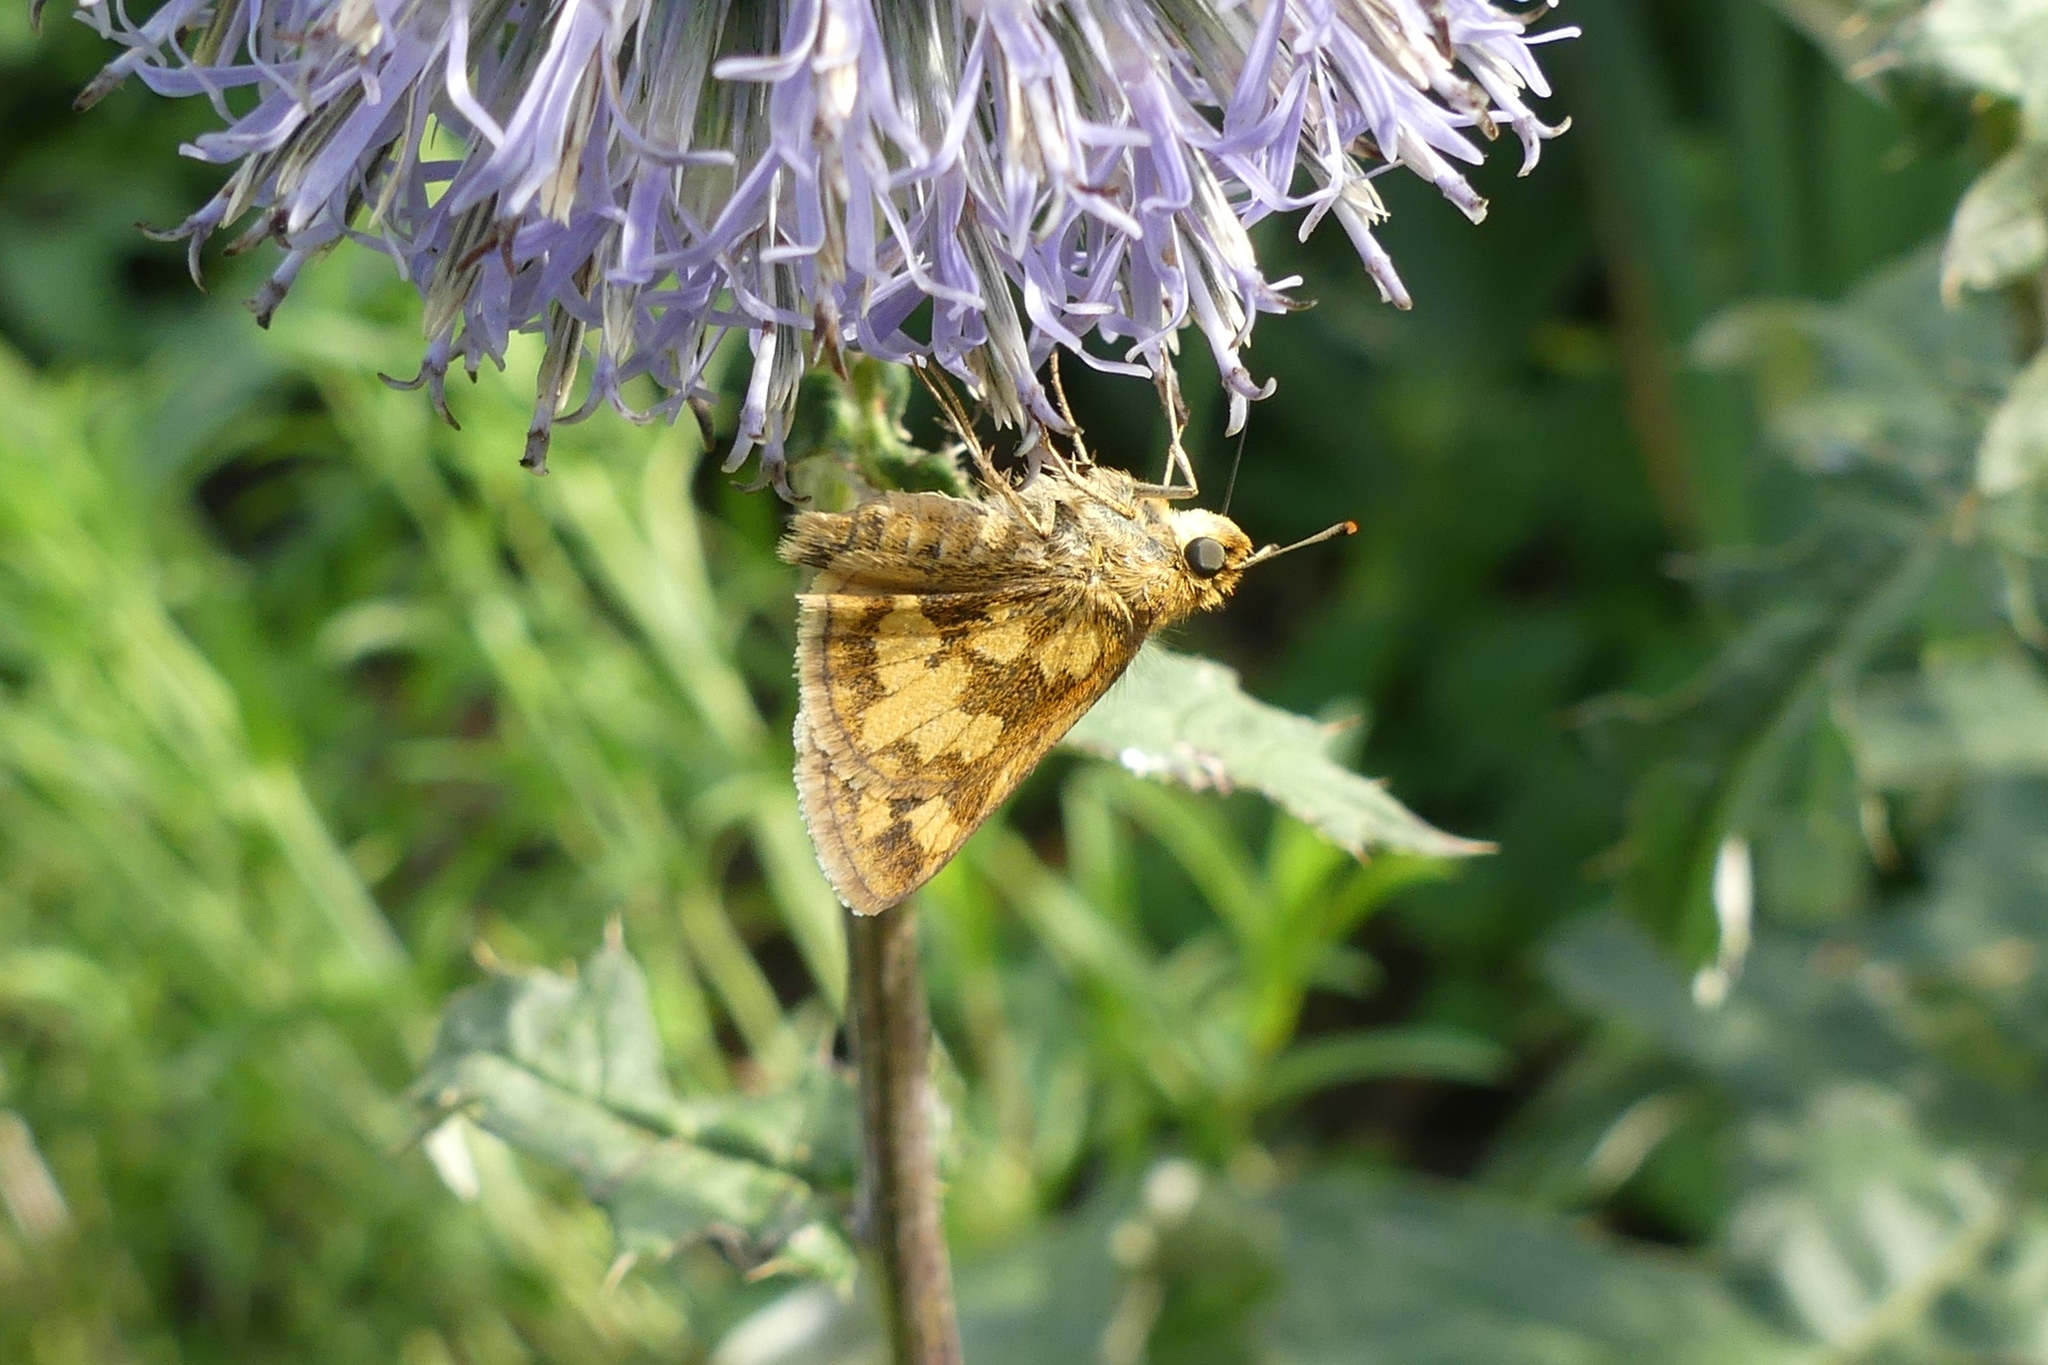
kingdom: Animalia
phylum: Arthropoda
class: Insecta
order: Lepidoptera
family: Hesperiidae
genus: Polites
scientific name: Polites coras
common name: Peck's skipper
